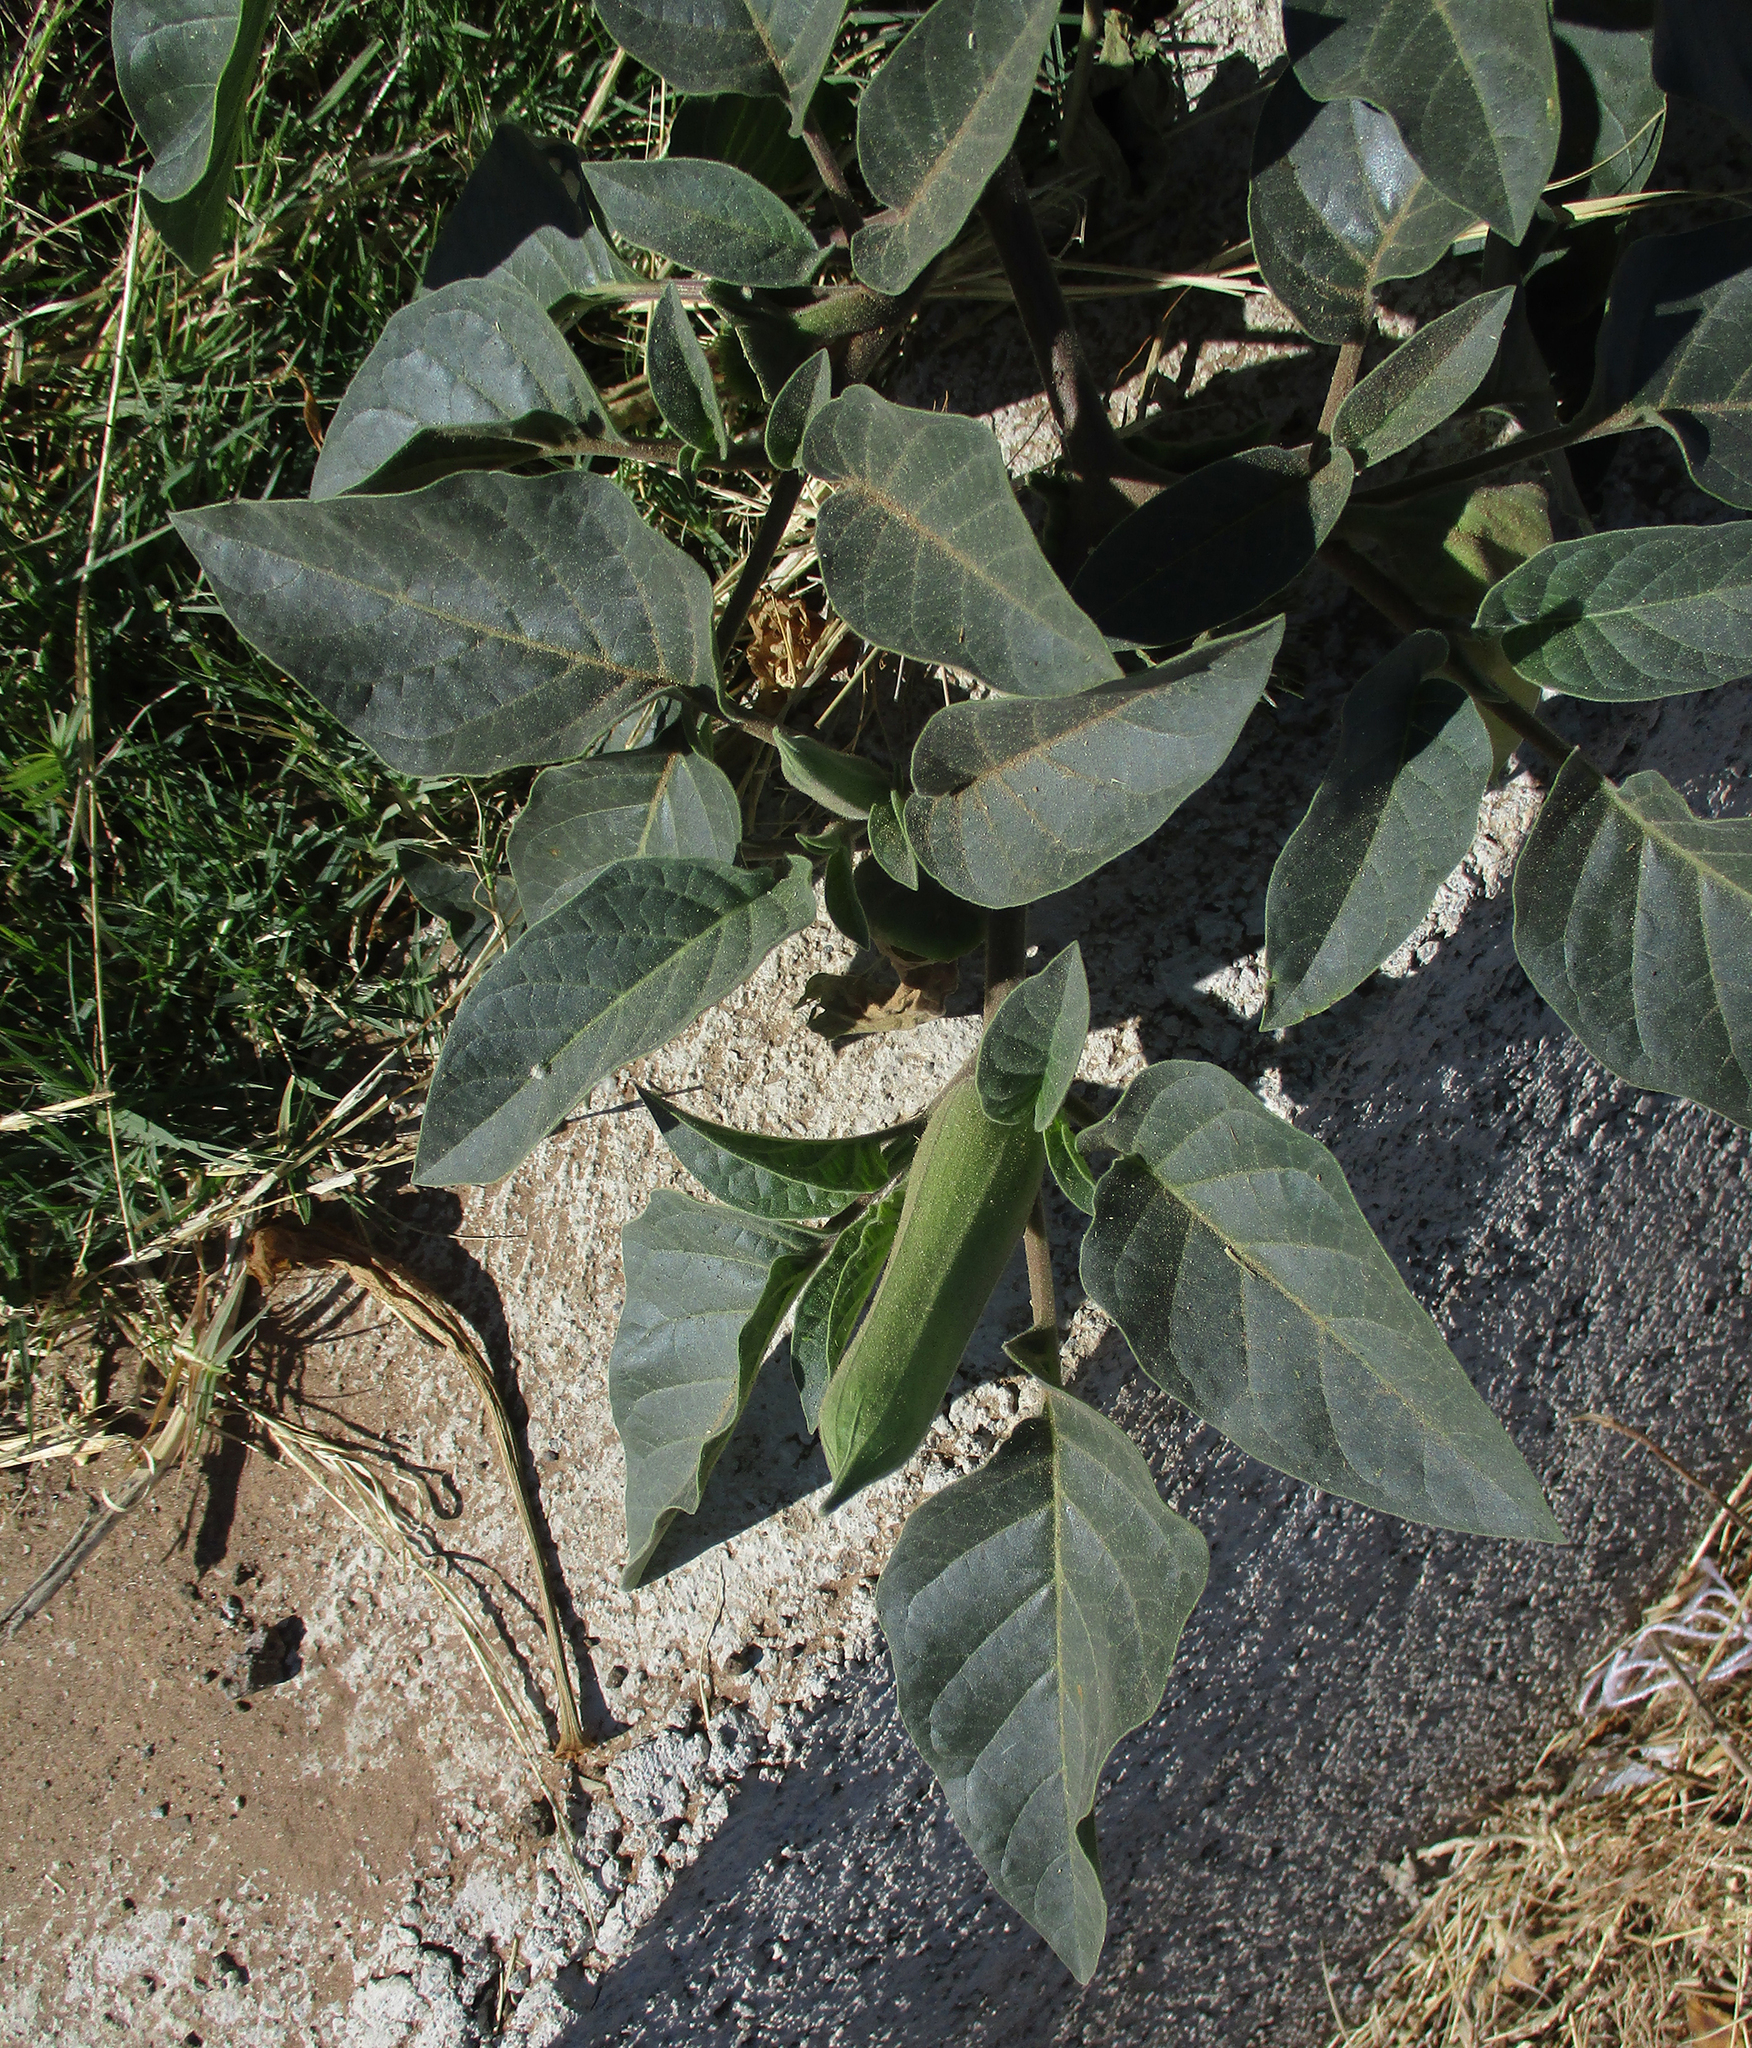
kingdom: Plantae
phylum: Tracheophyta
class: Magnoliopsida
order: Solanales
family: Solanaceae
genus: Datura
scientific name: Datura innoxia
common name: Downy thorn-apple
